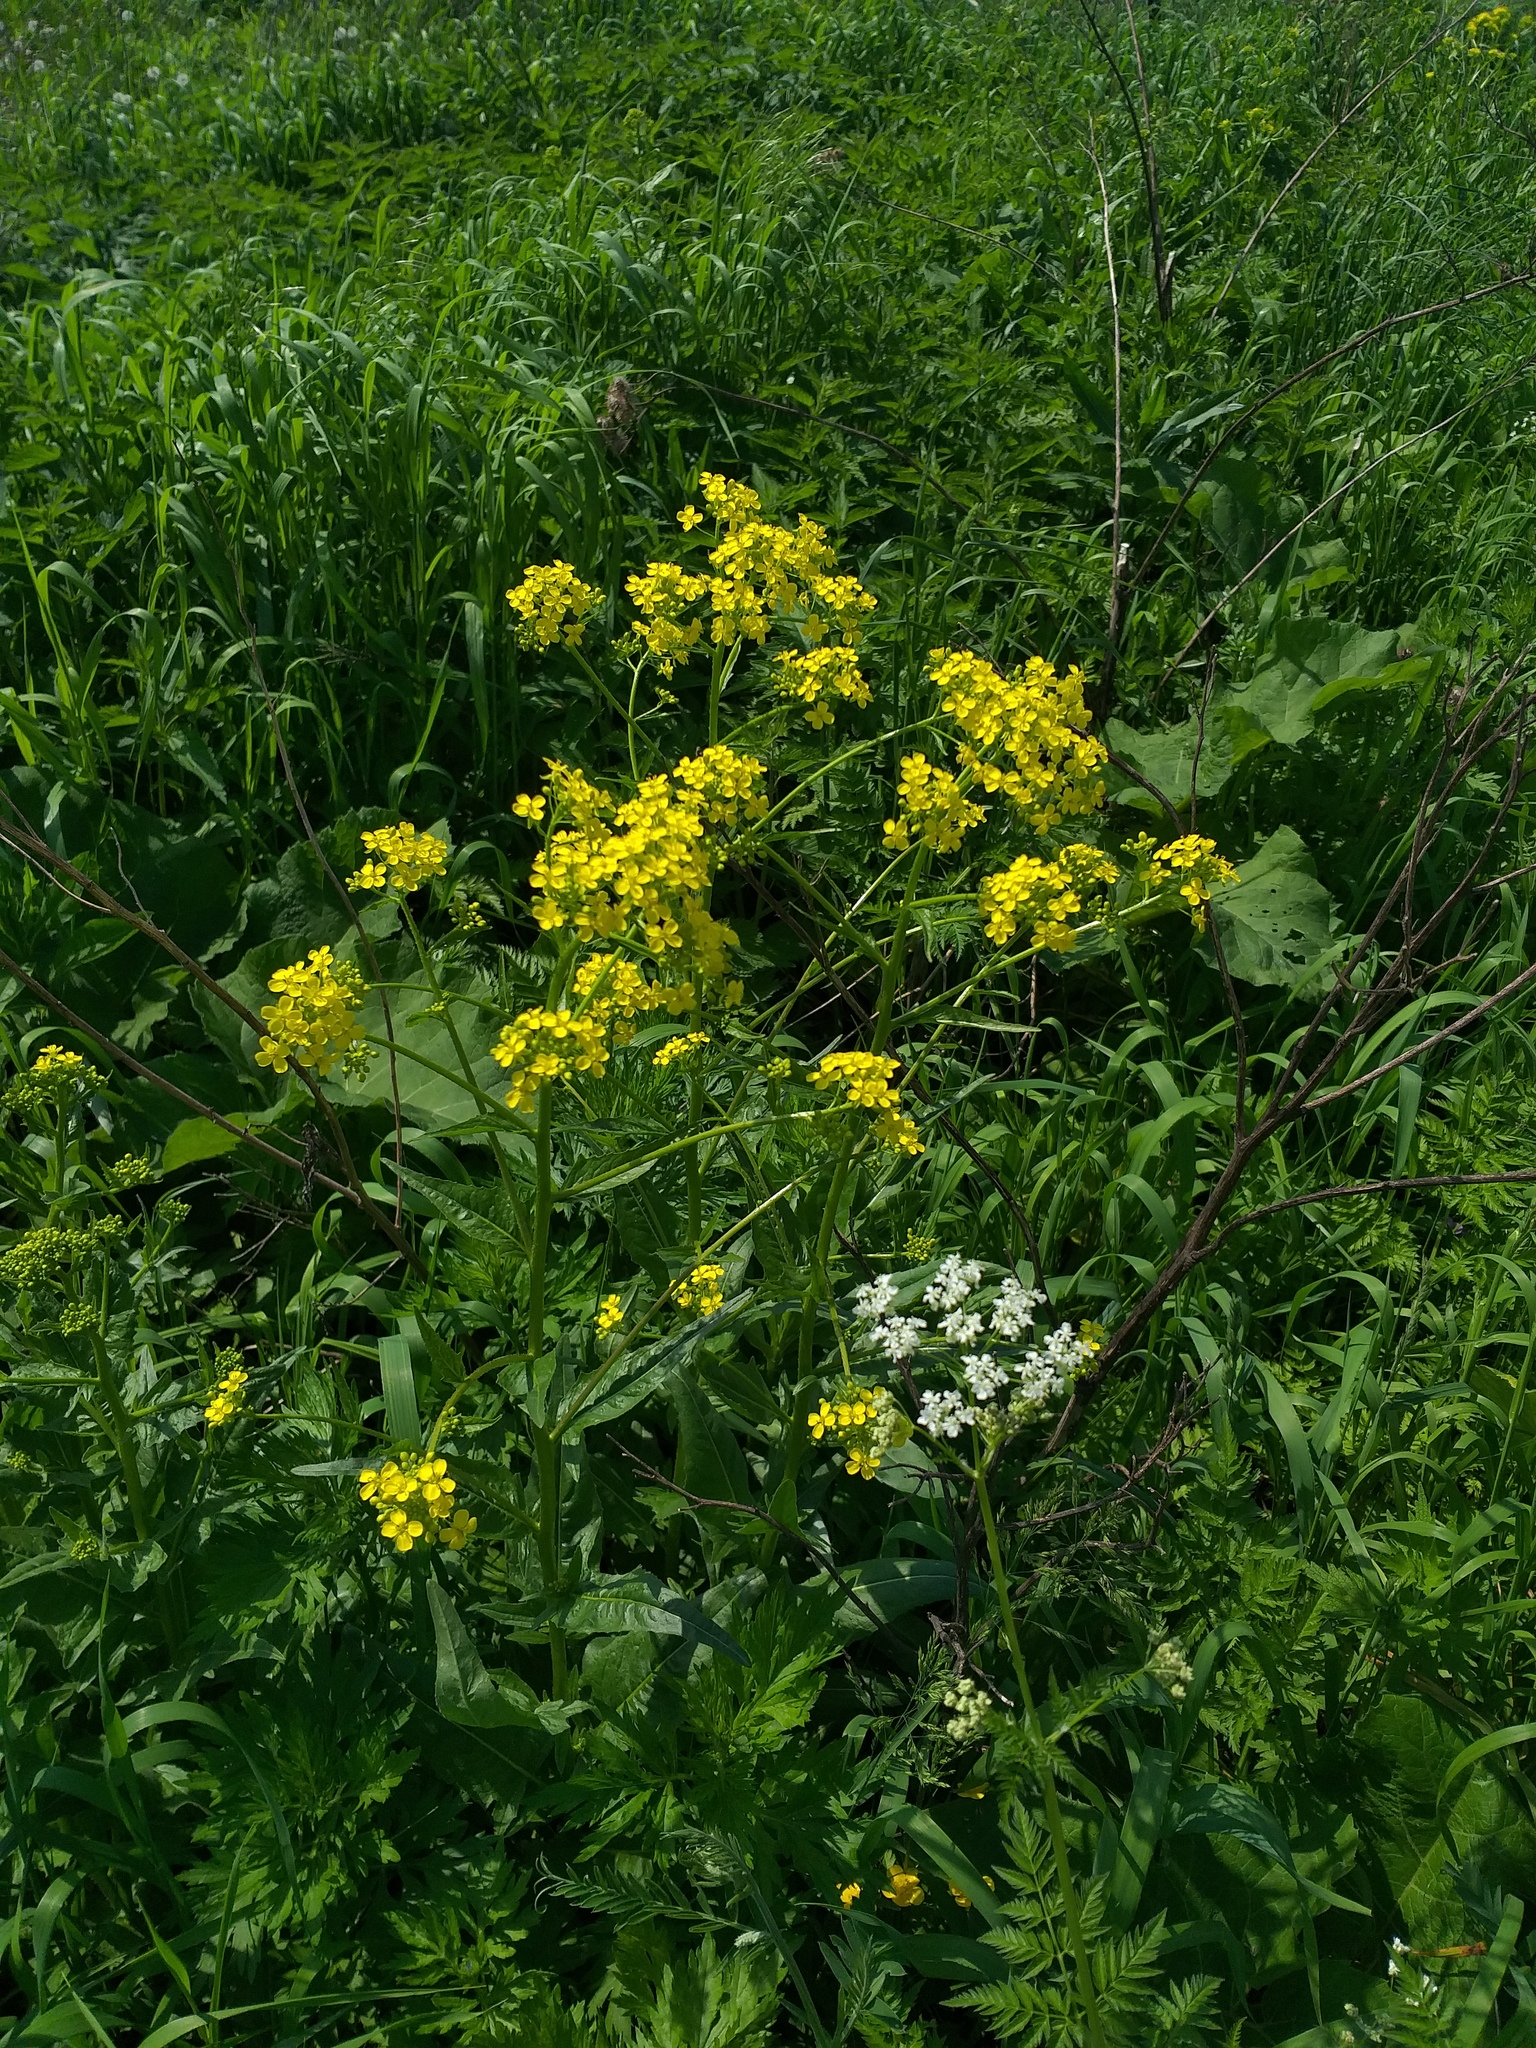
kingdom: Plantae
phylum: Tracheophyta
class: Magnoliopsida
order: Brassicales
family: Brassicaceae
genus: Bunias
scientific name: Bunias orientalis
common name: Warty-cabbage
